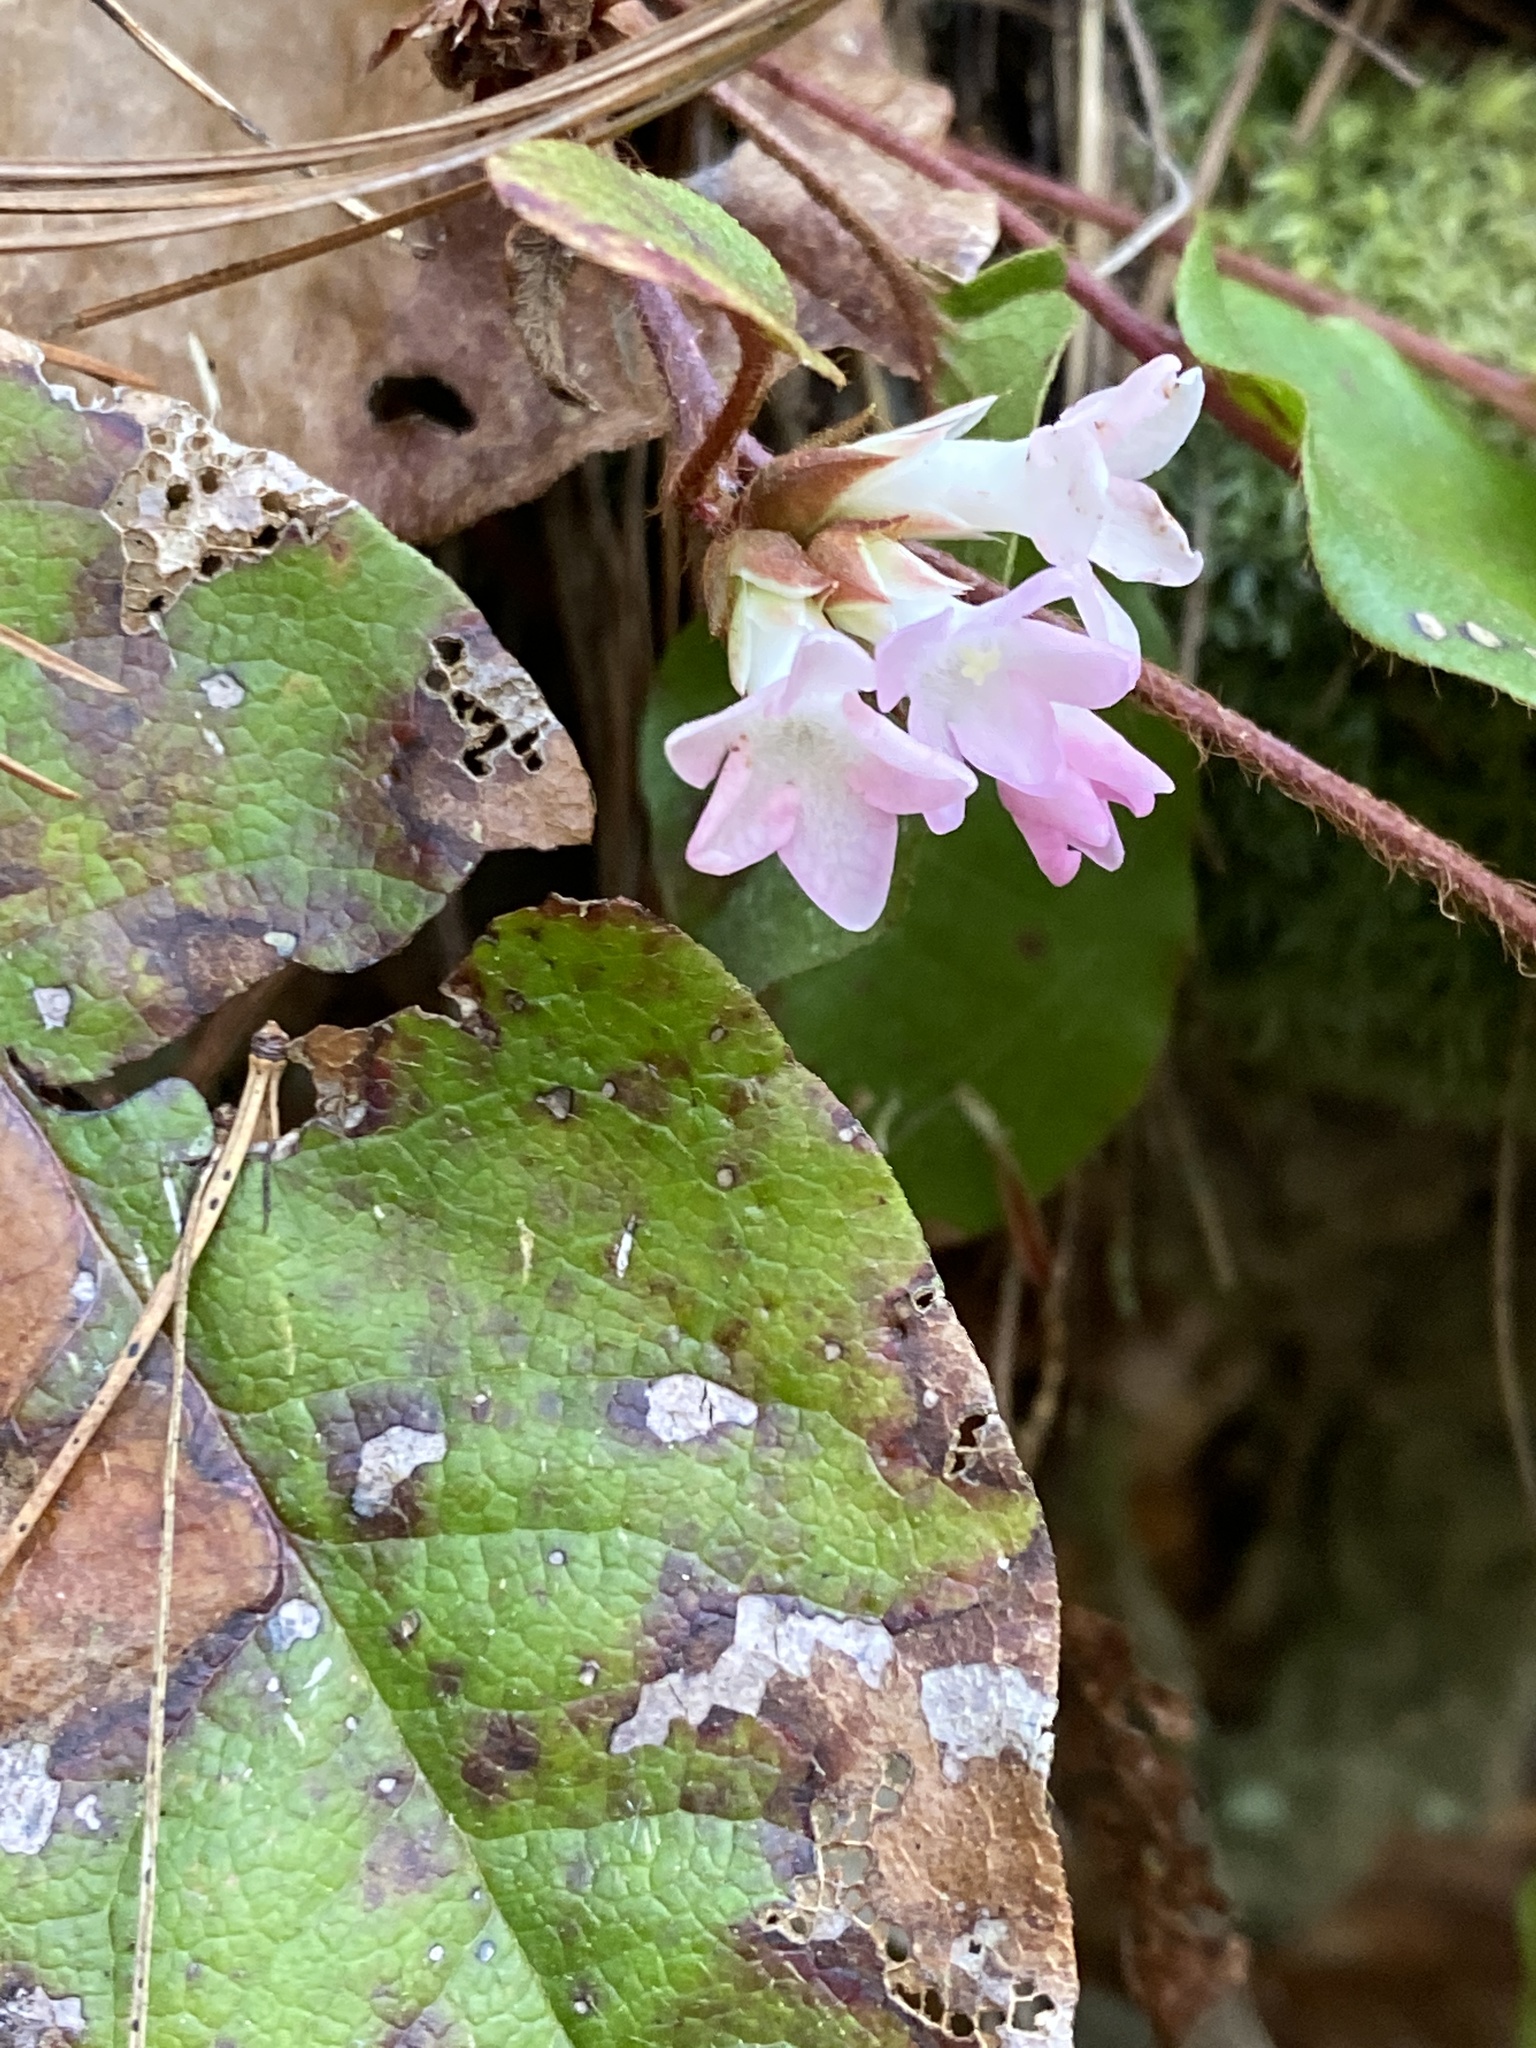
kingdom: Plantae
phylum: Tracheophyta
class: Magnoliopsida
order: Ericales
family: Ericaceae
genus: Epigaea
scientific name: Epigaea repens
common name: Gravelroot
